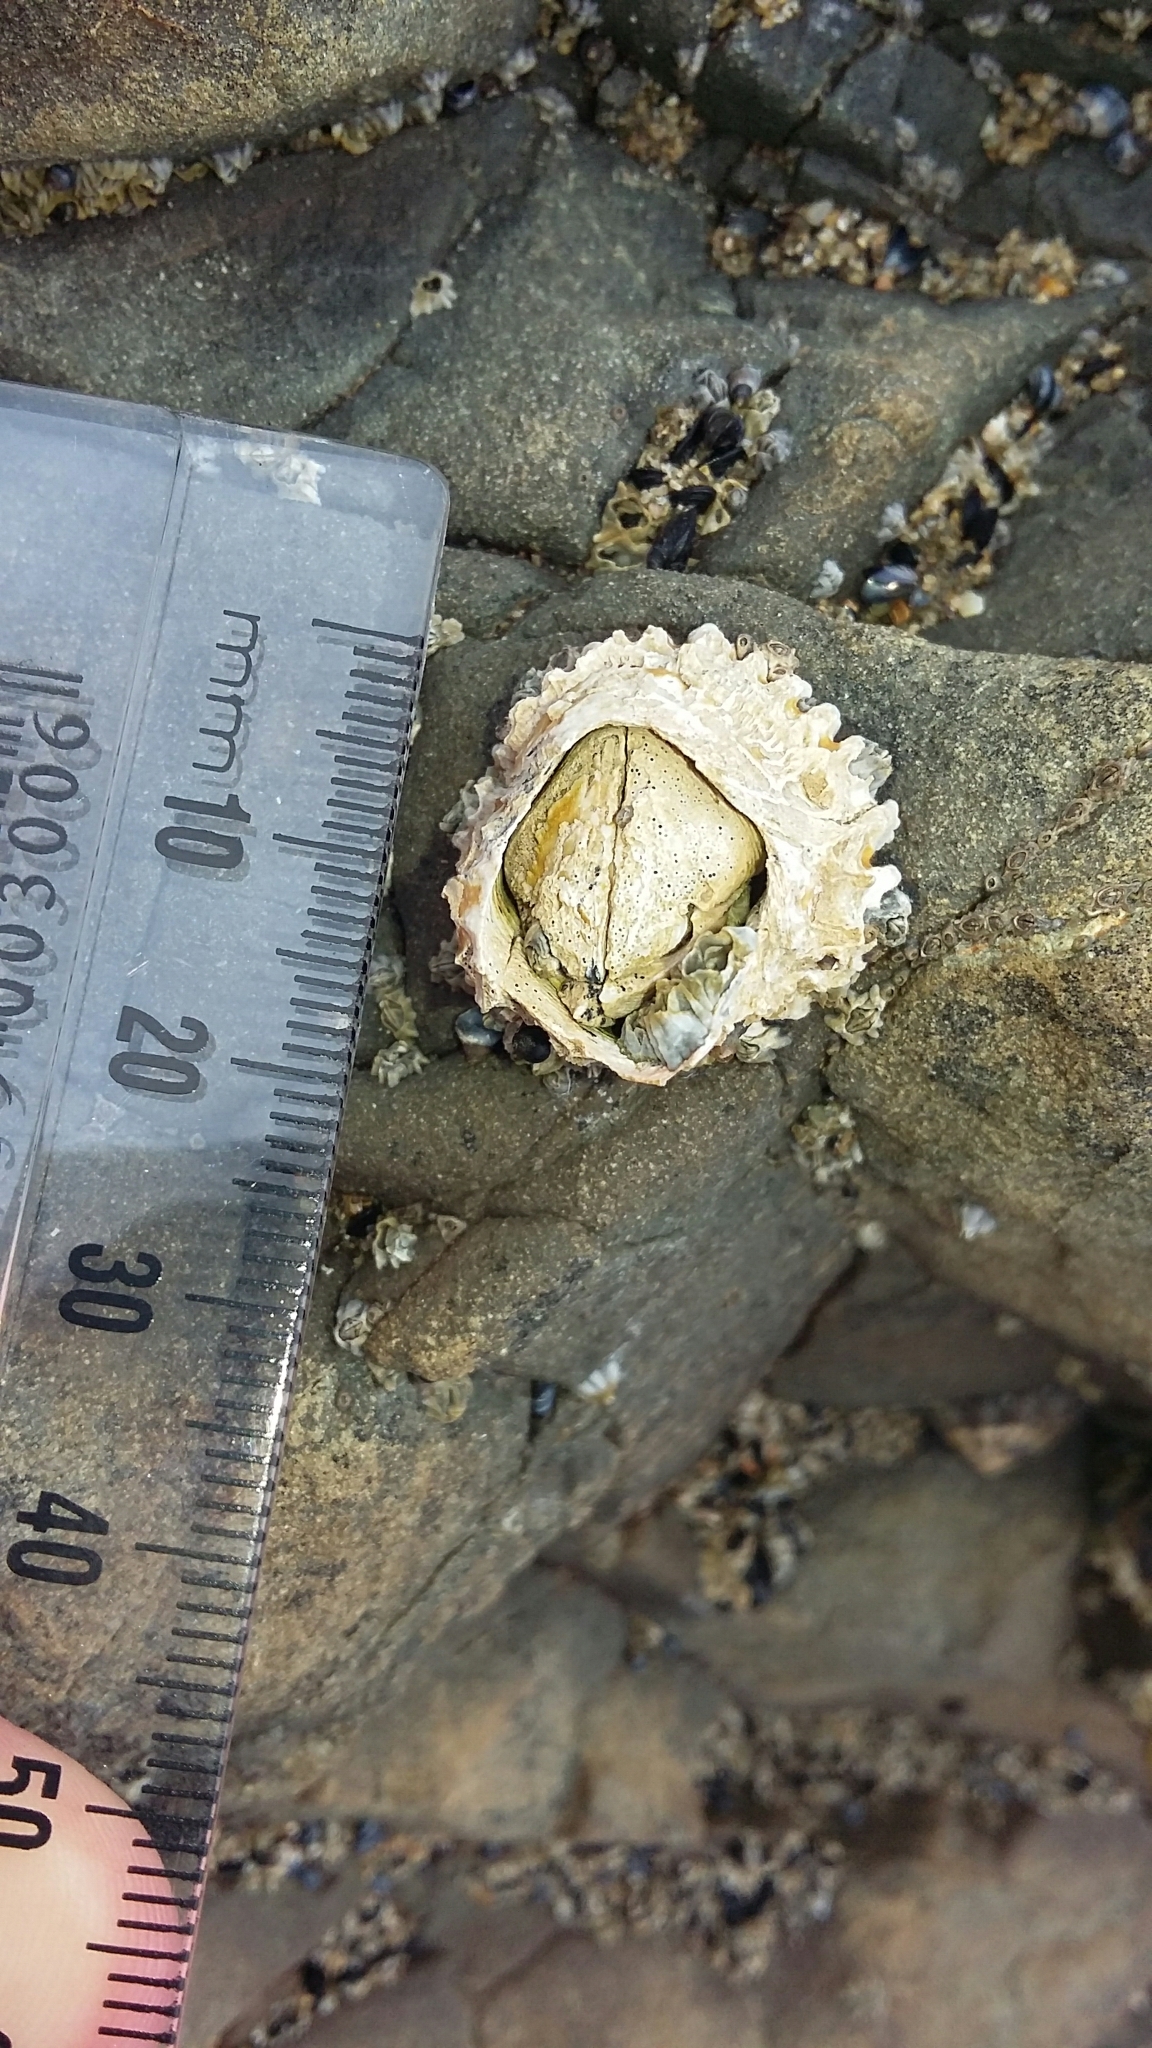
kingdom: Animalia
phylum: Arthropoda
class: Maxillopoda
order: Sessilia
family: Tetraclitidae
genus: Epopella
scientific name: Epopella plicata
